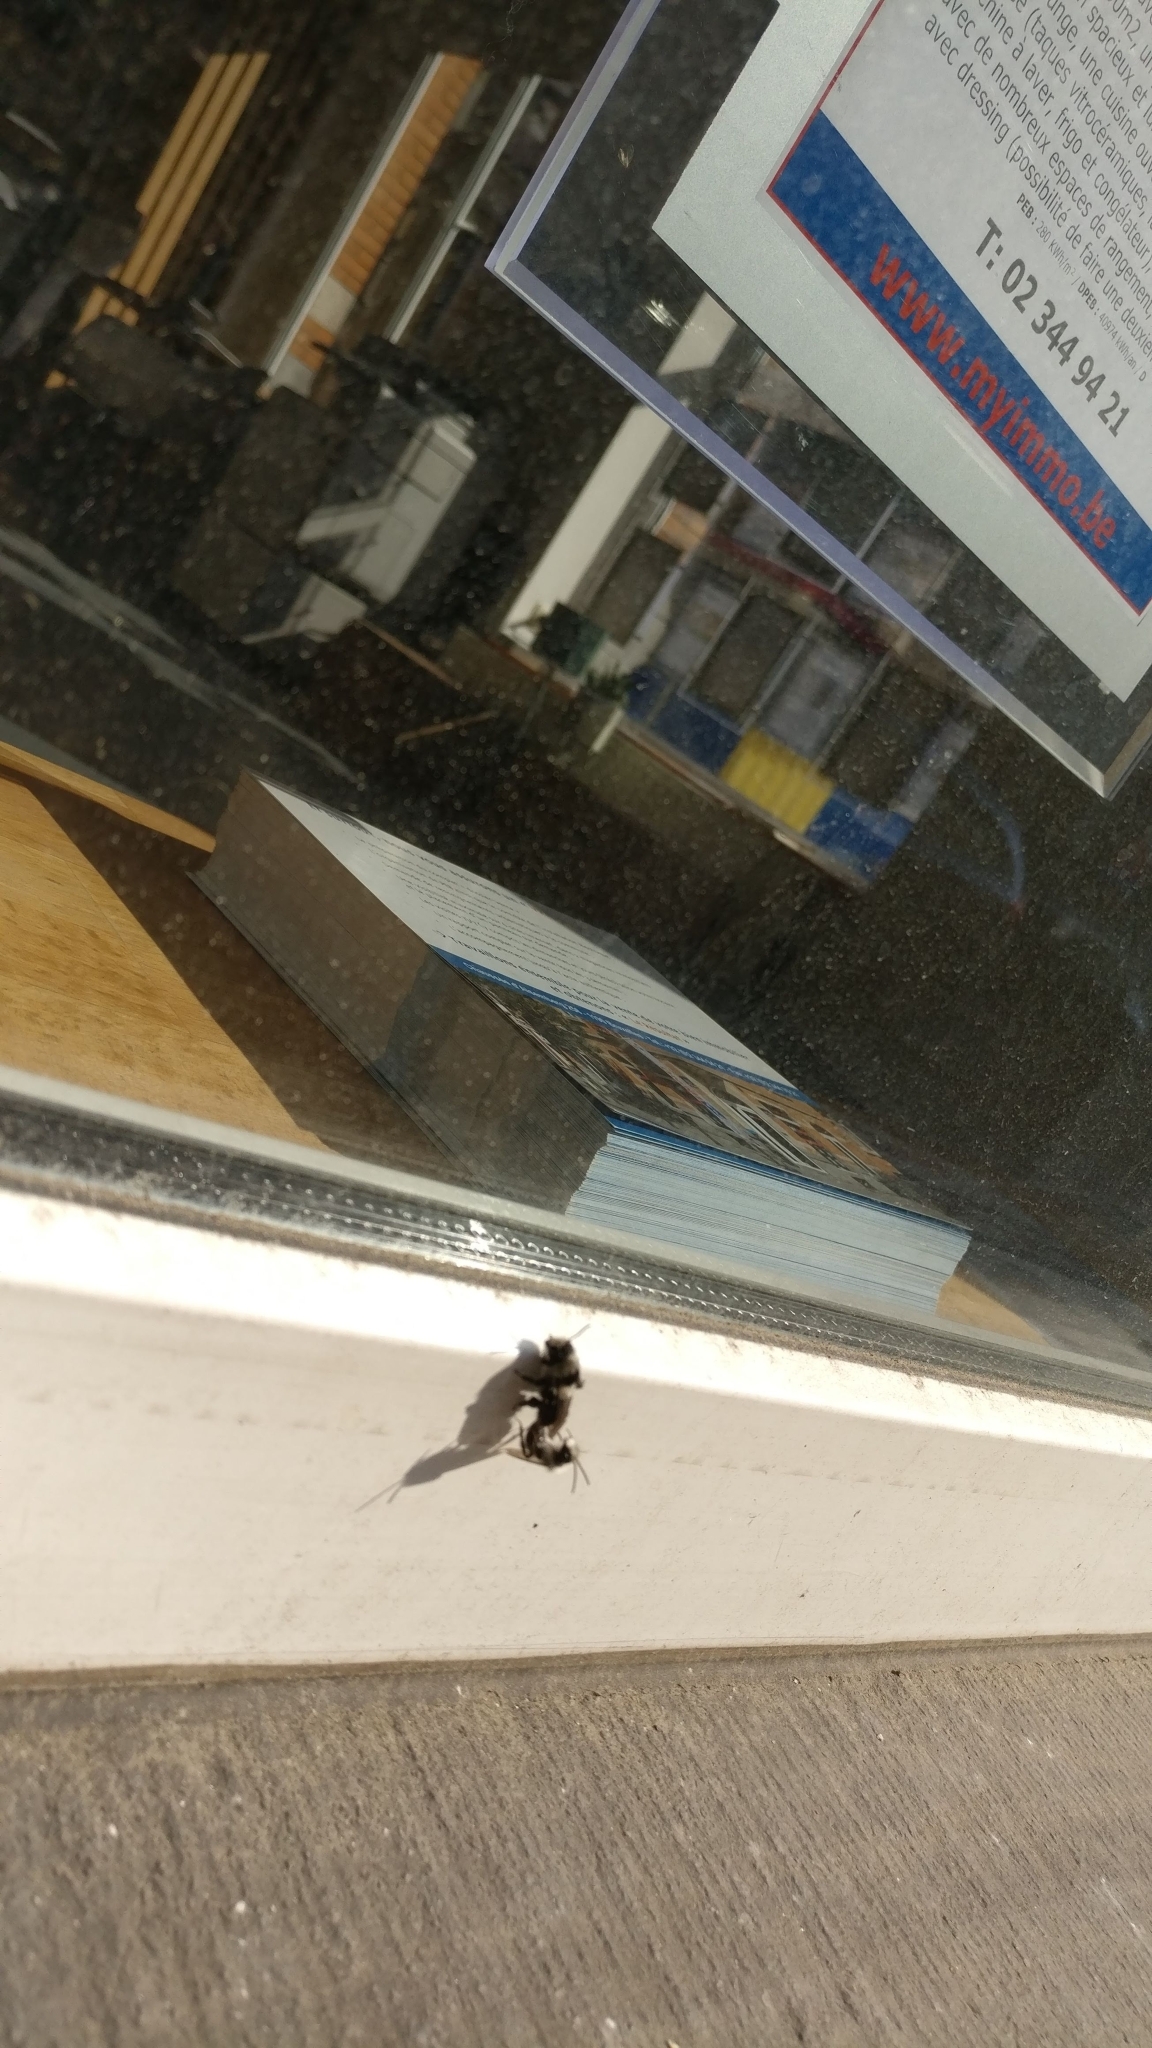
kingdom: Animalia
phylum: Arthropoda
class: Insecta
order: Hymenoptera
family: Andrenidae
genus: Andrena
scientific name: Andrena cineraria
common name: Ashy mining bee
